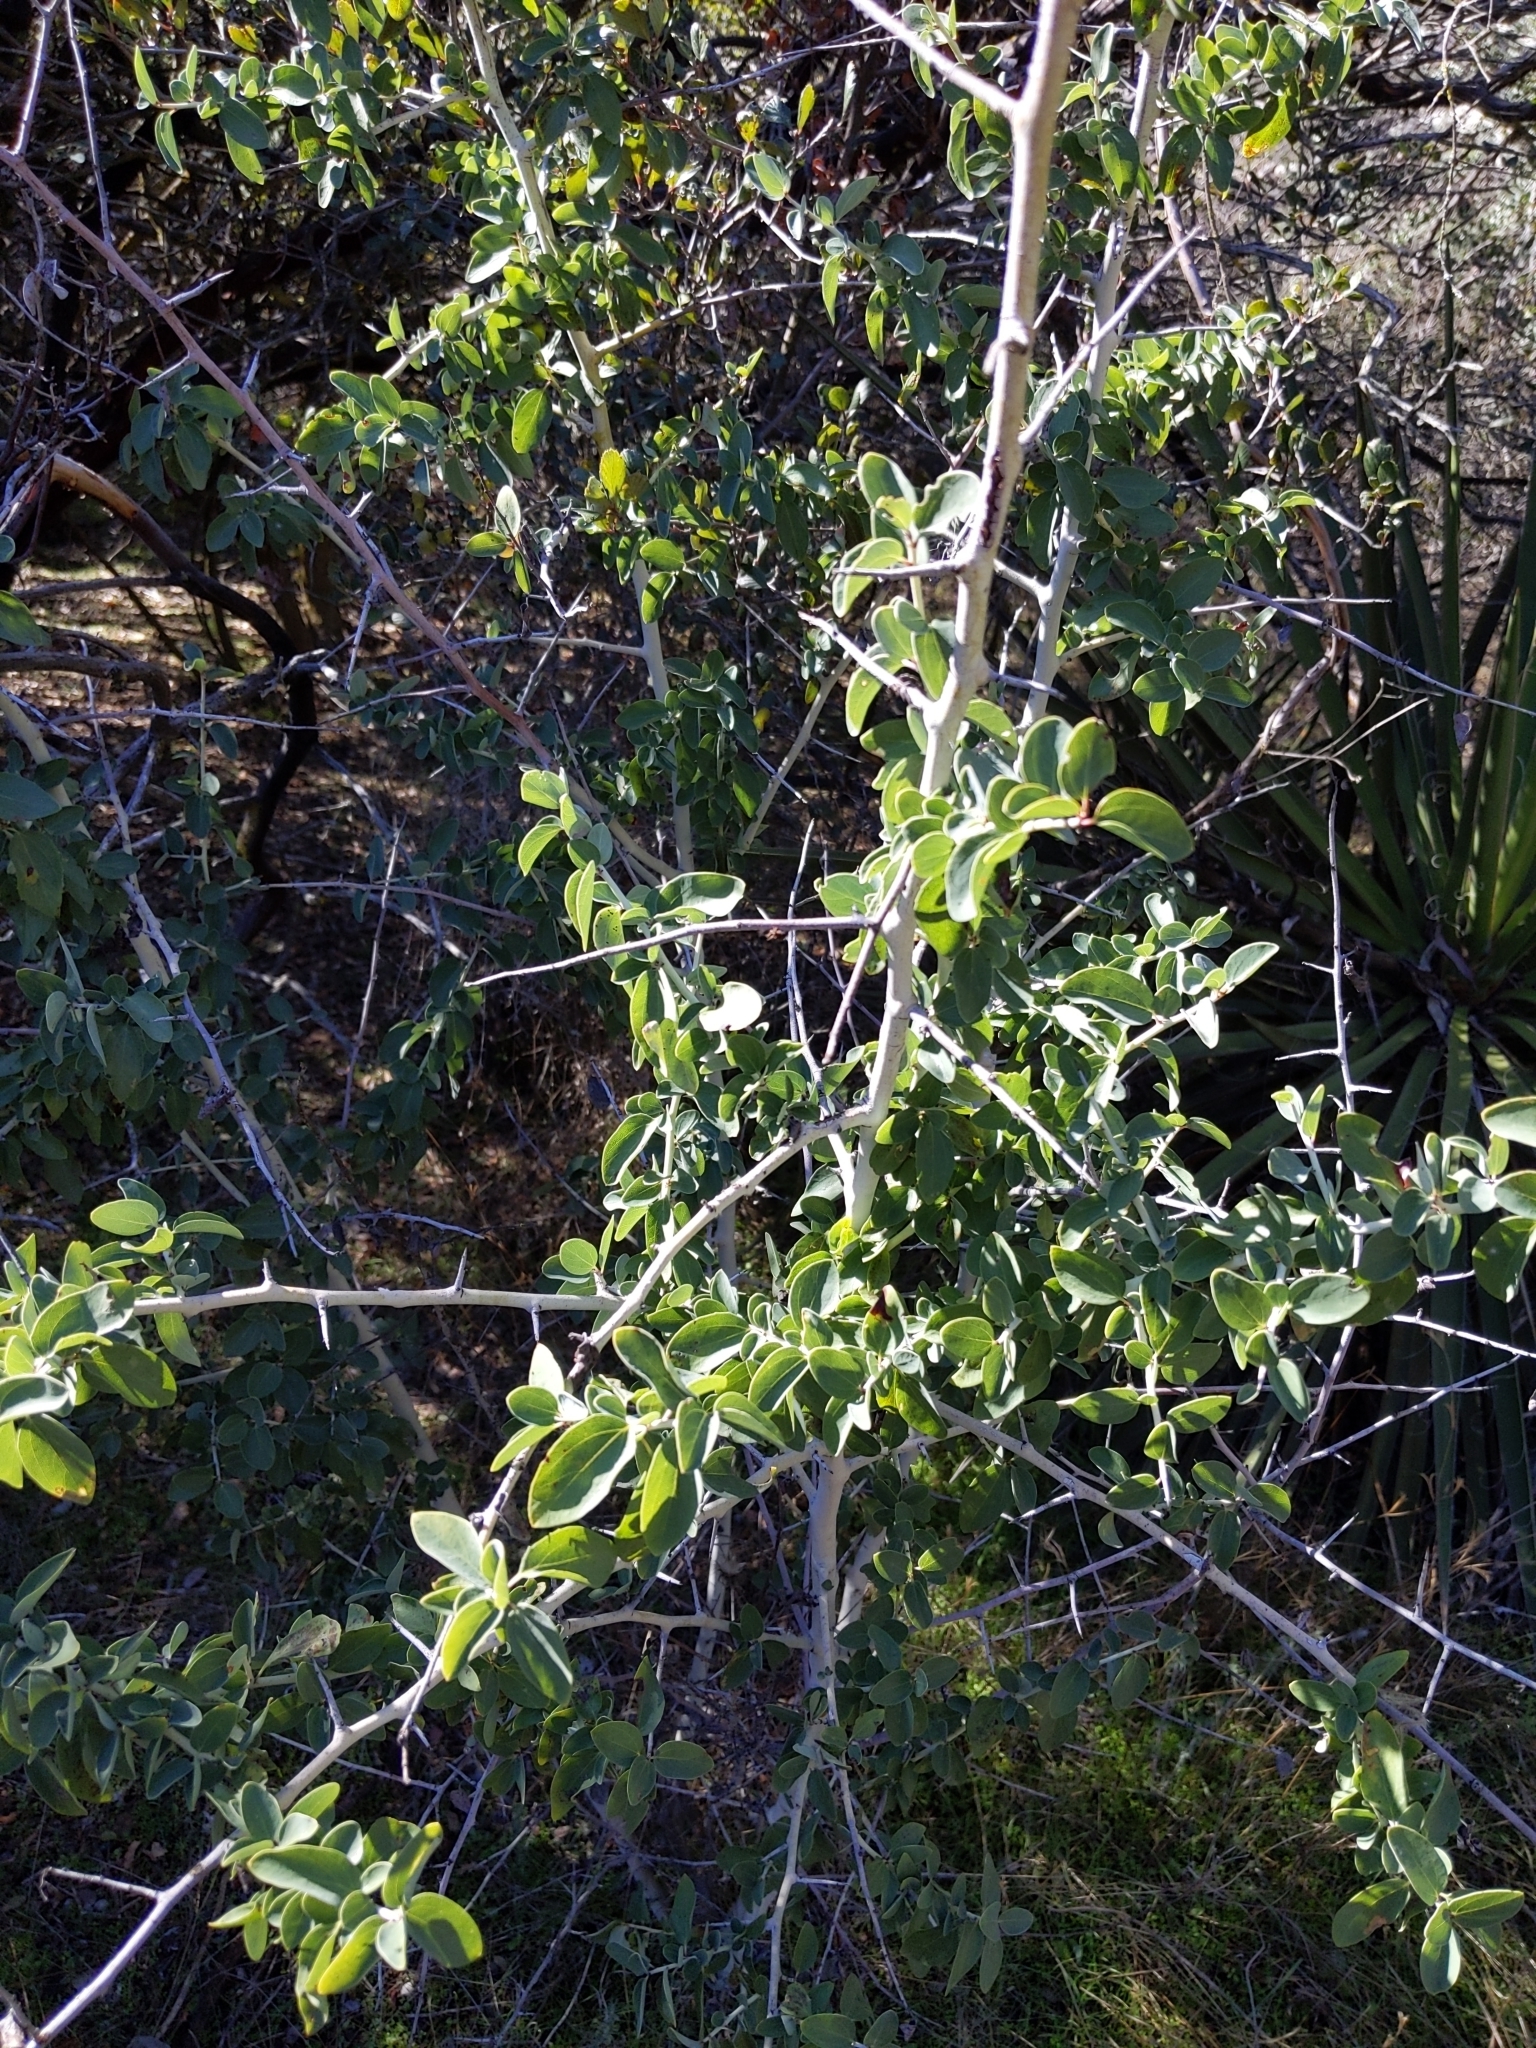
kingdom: Plantae
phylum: Tracheophyta
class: Magnoliopsida
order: Rosales
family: Rhamnaceae
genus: Ceanothus
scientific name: Ceanothus leucodermis
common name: Chaparral whitethorn
